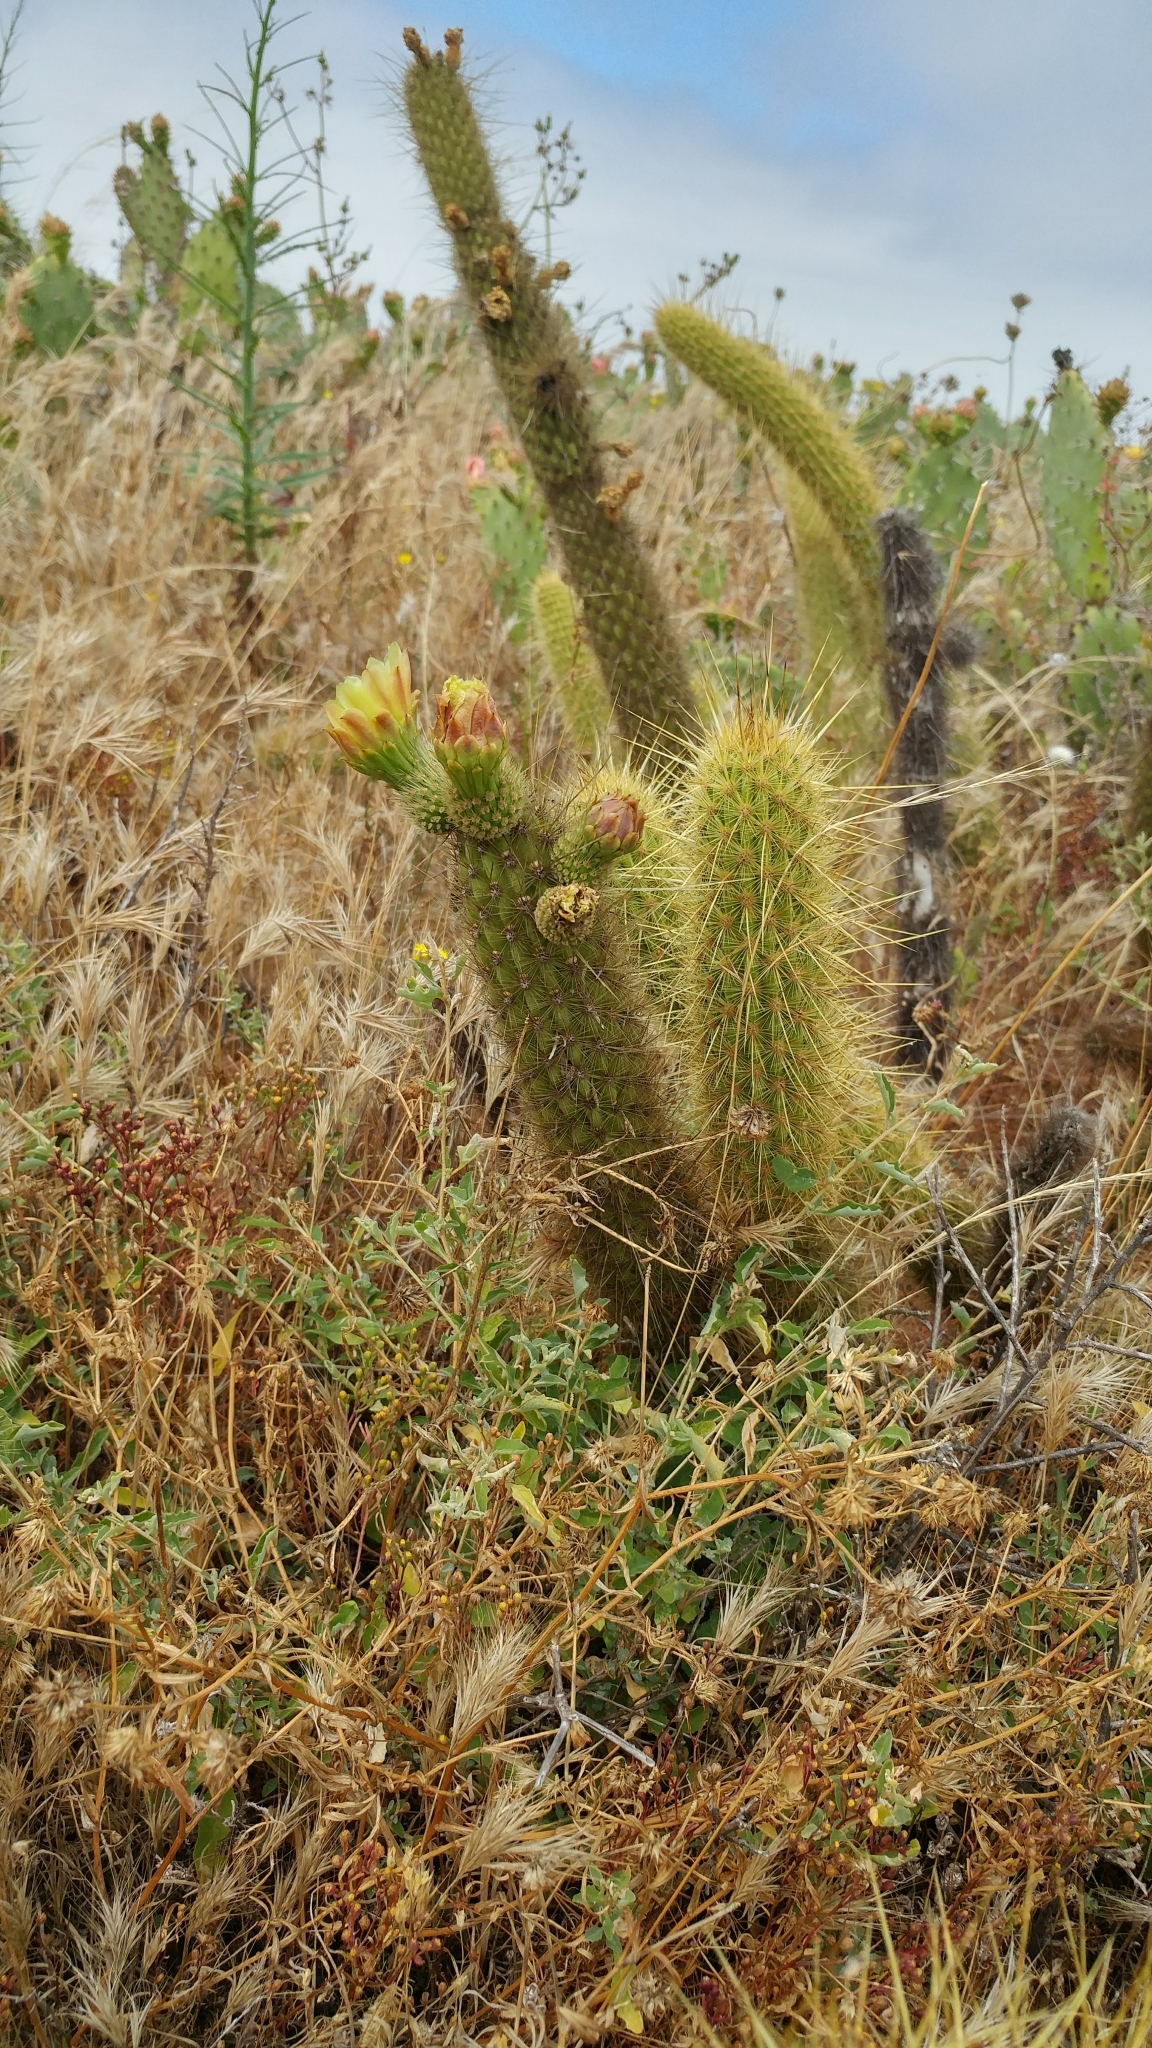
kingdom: Plantae
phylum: Tracheophyta
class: Magnoliopsida
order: Caryophyllales
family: Cactaceae
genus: Bergerocactus
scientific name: Bergerocactus emoryi
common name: Golden snakecactus
